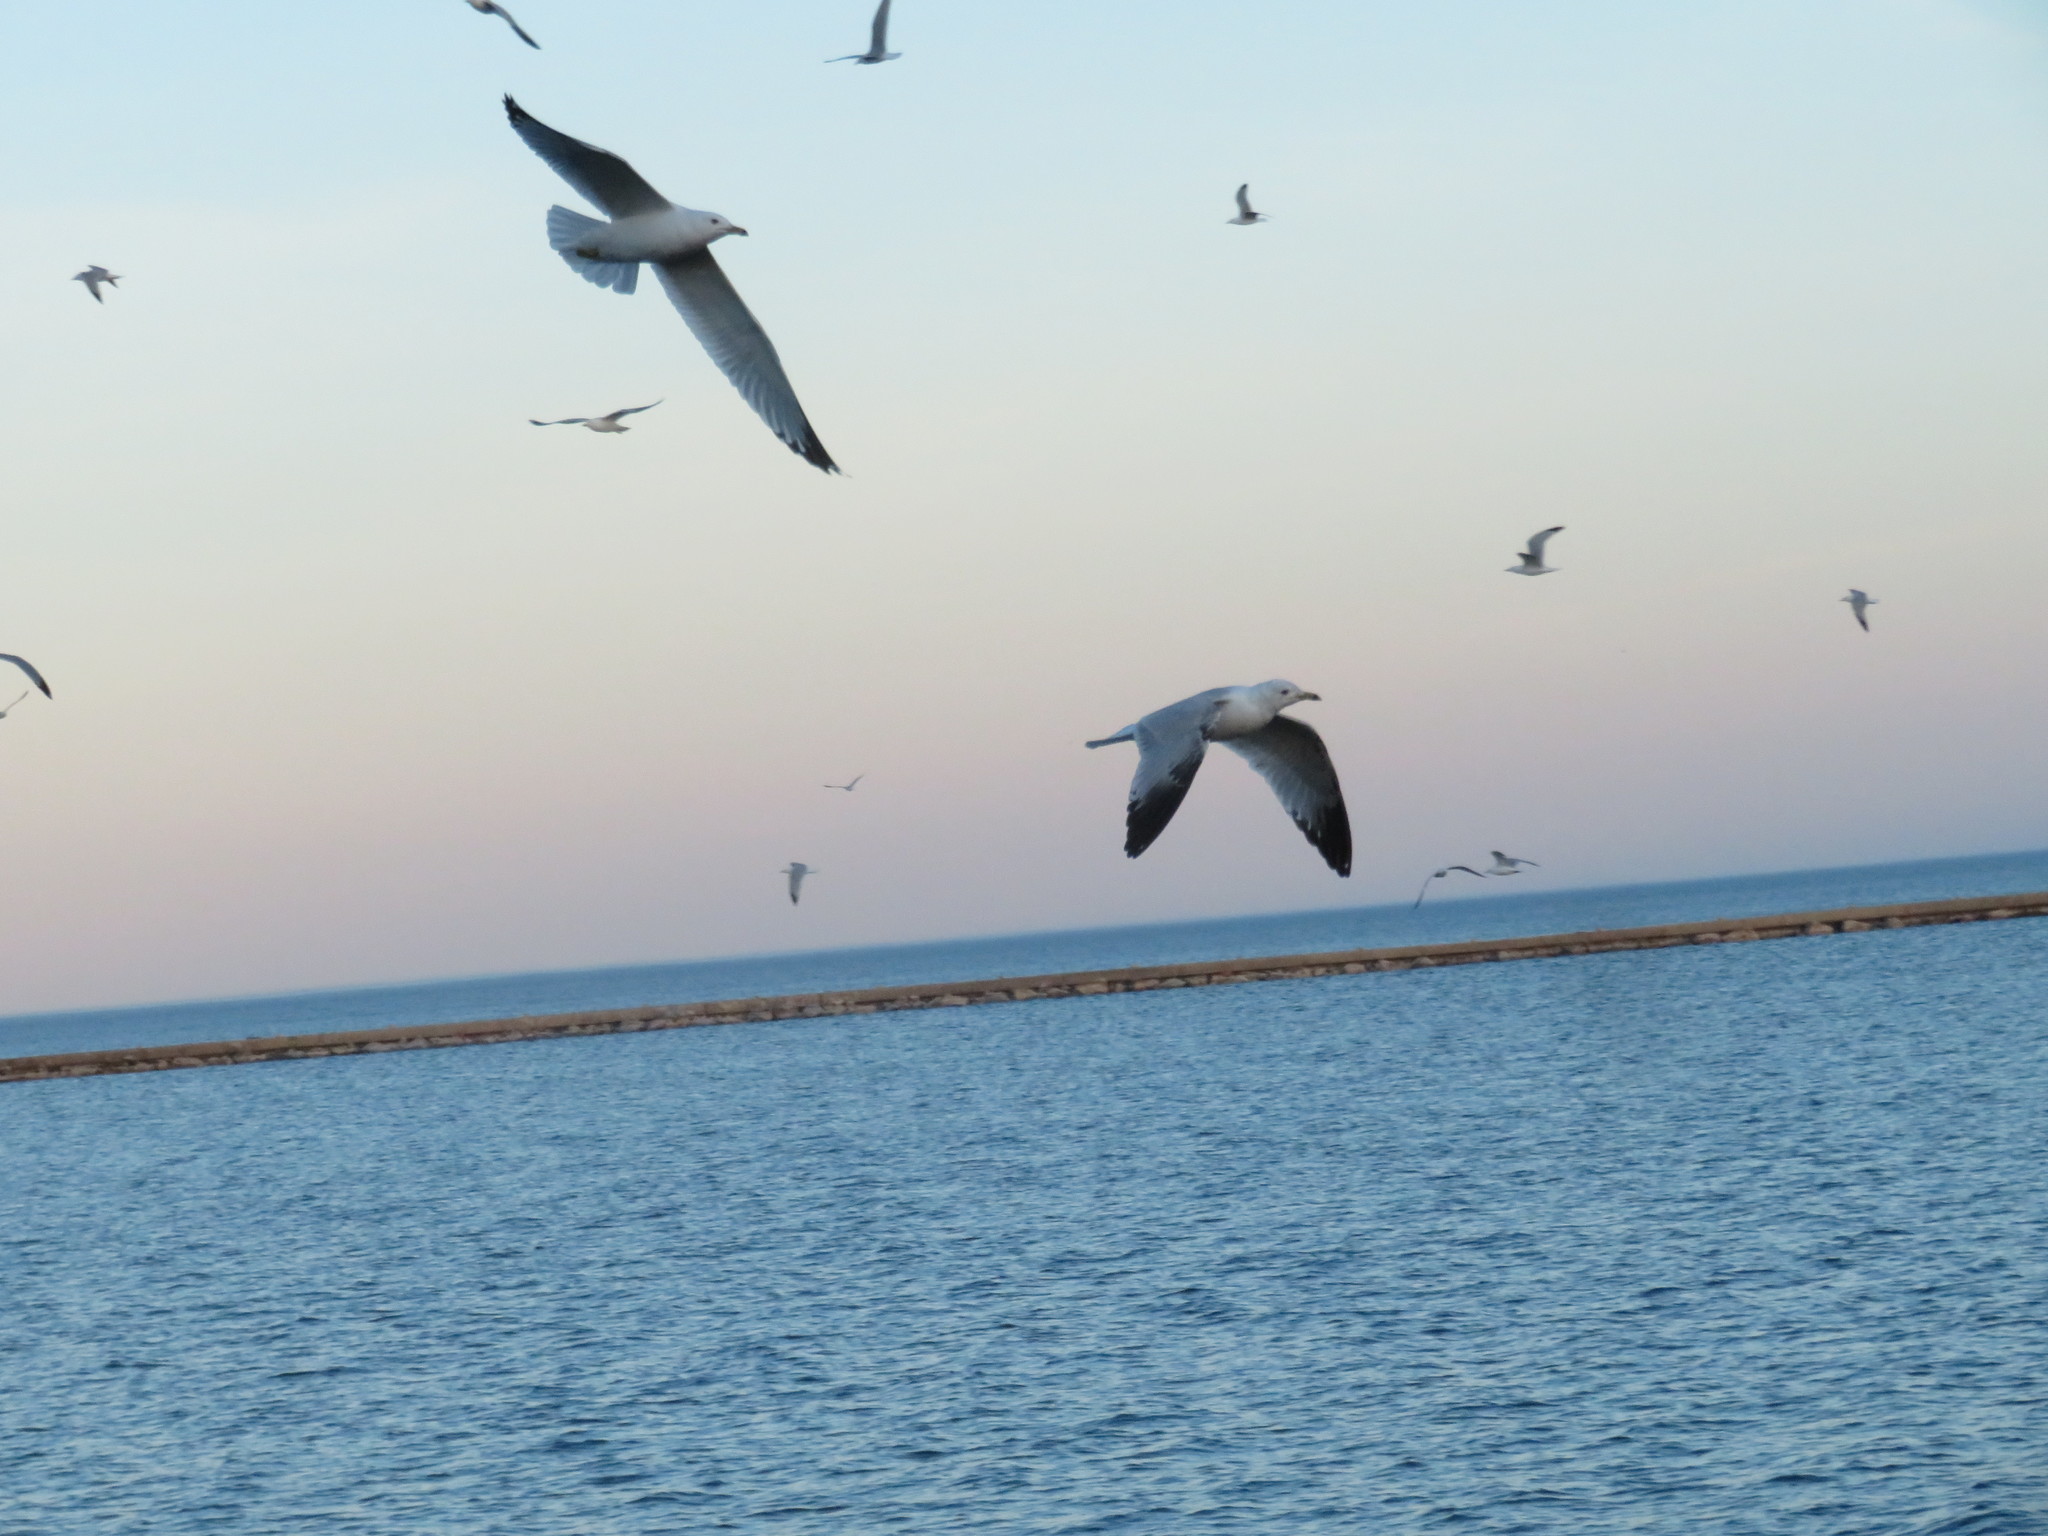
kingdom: Animalia
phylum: Chordata
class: Aves
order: Charadriiformes
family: Laridae
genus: Larus
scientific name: Larus delawarensis
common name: Ring-billed gull
